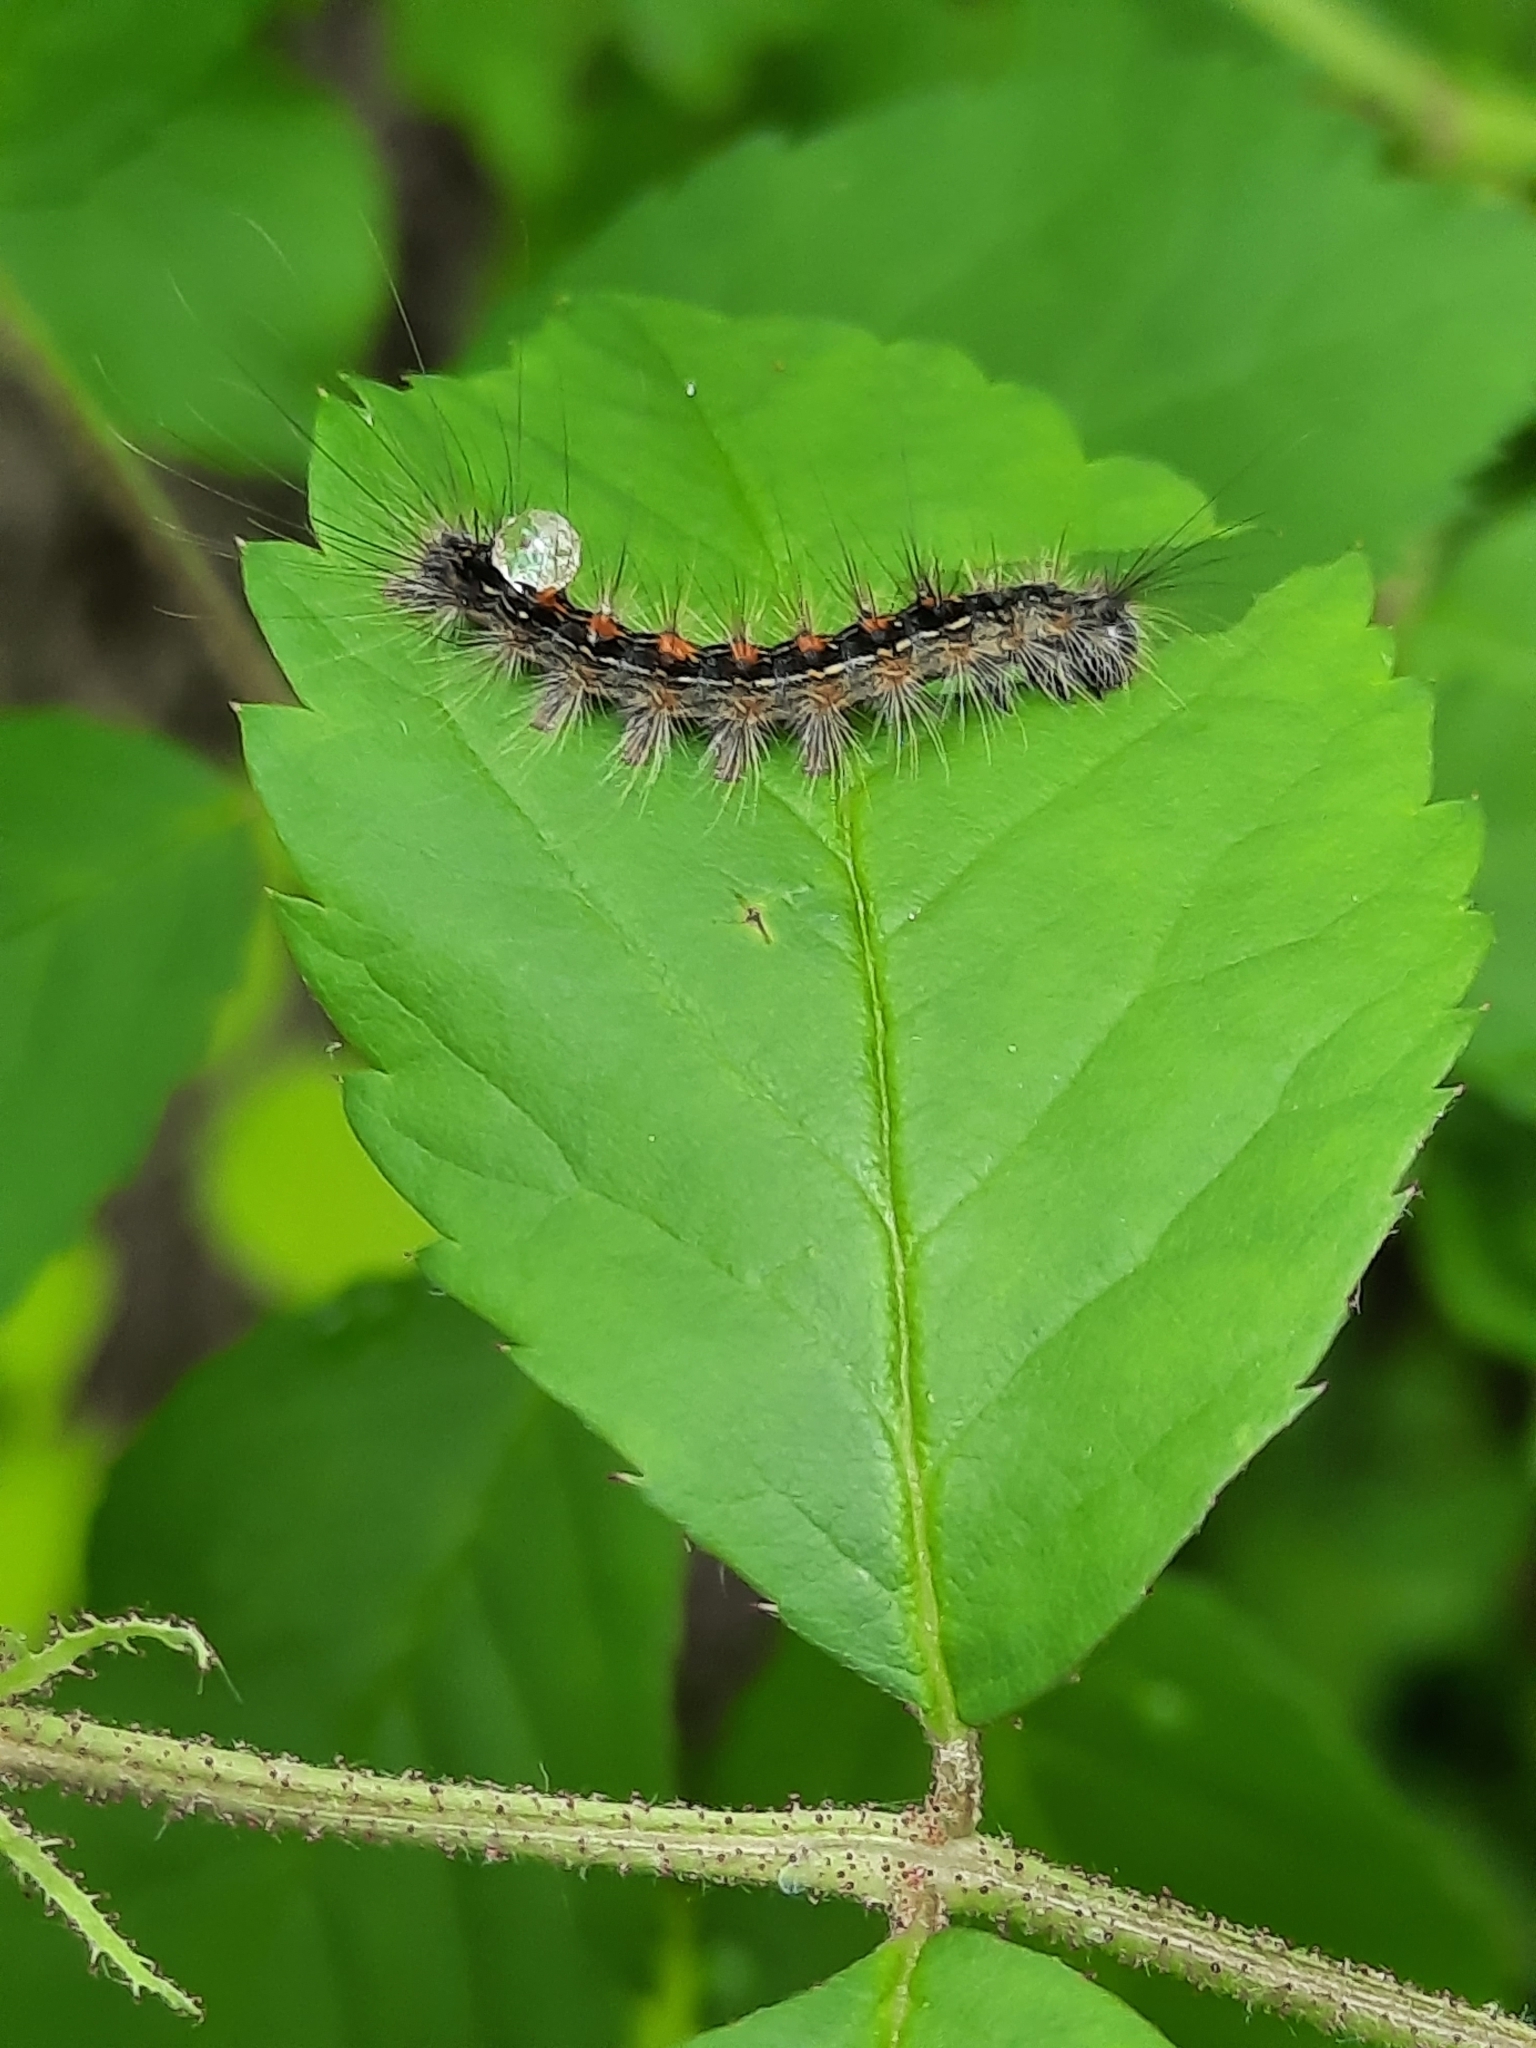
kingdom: Animalia
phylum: Arthropoda
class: Insecta
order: Lepidoptera
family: Erebidae
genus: Lymantria
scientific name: Lymantria dispar
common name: Gypsy moth
